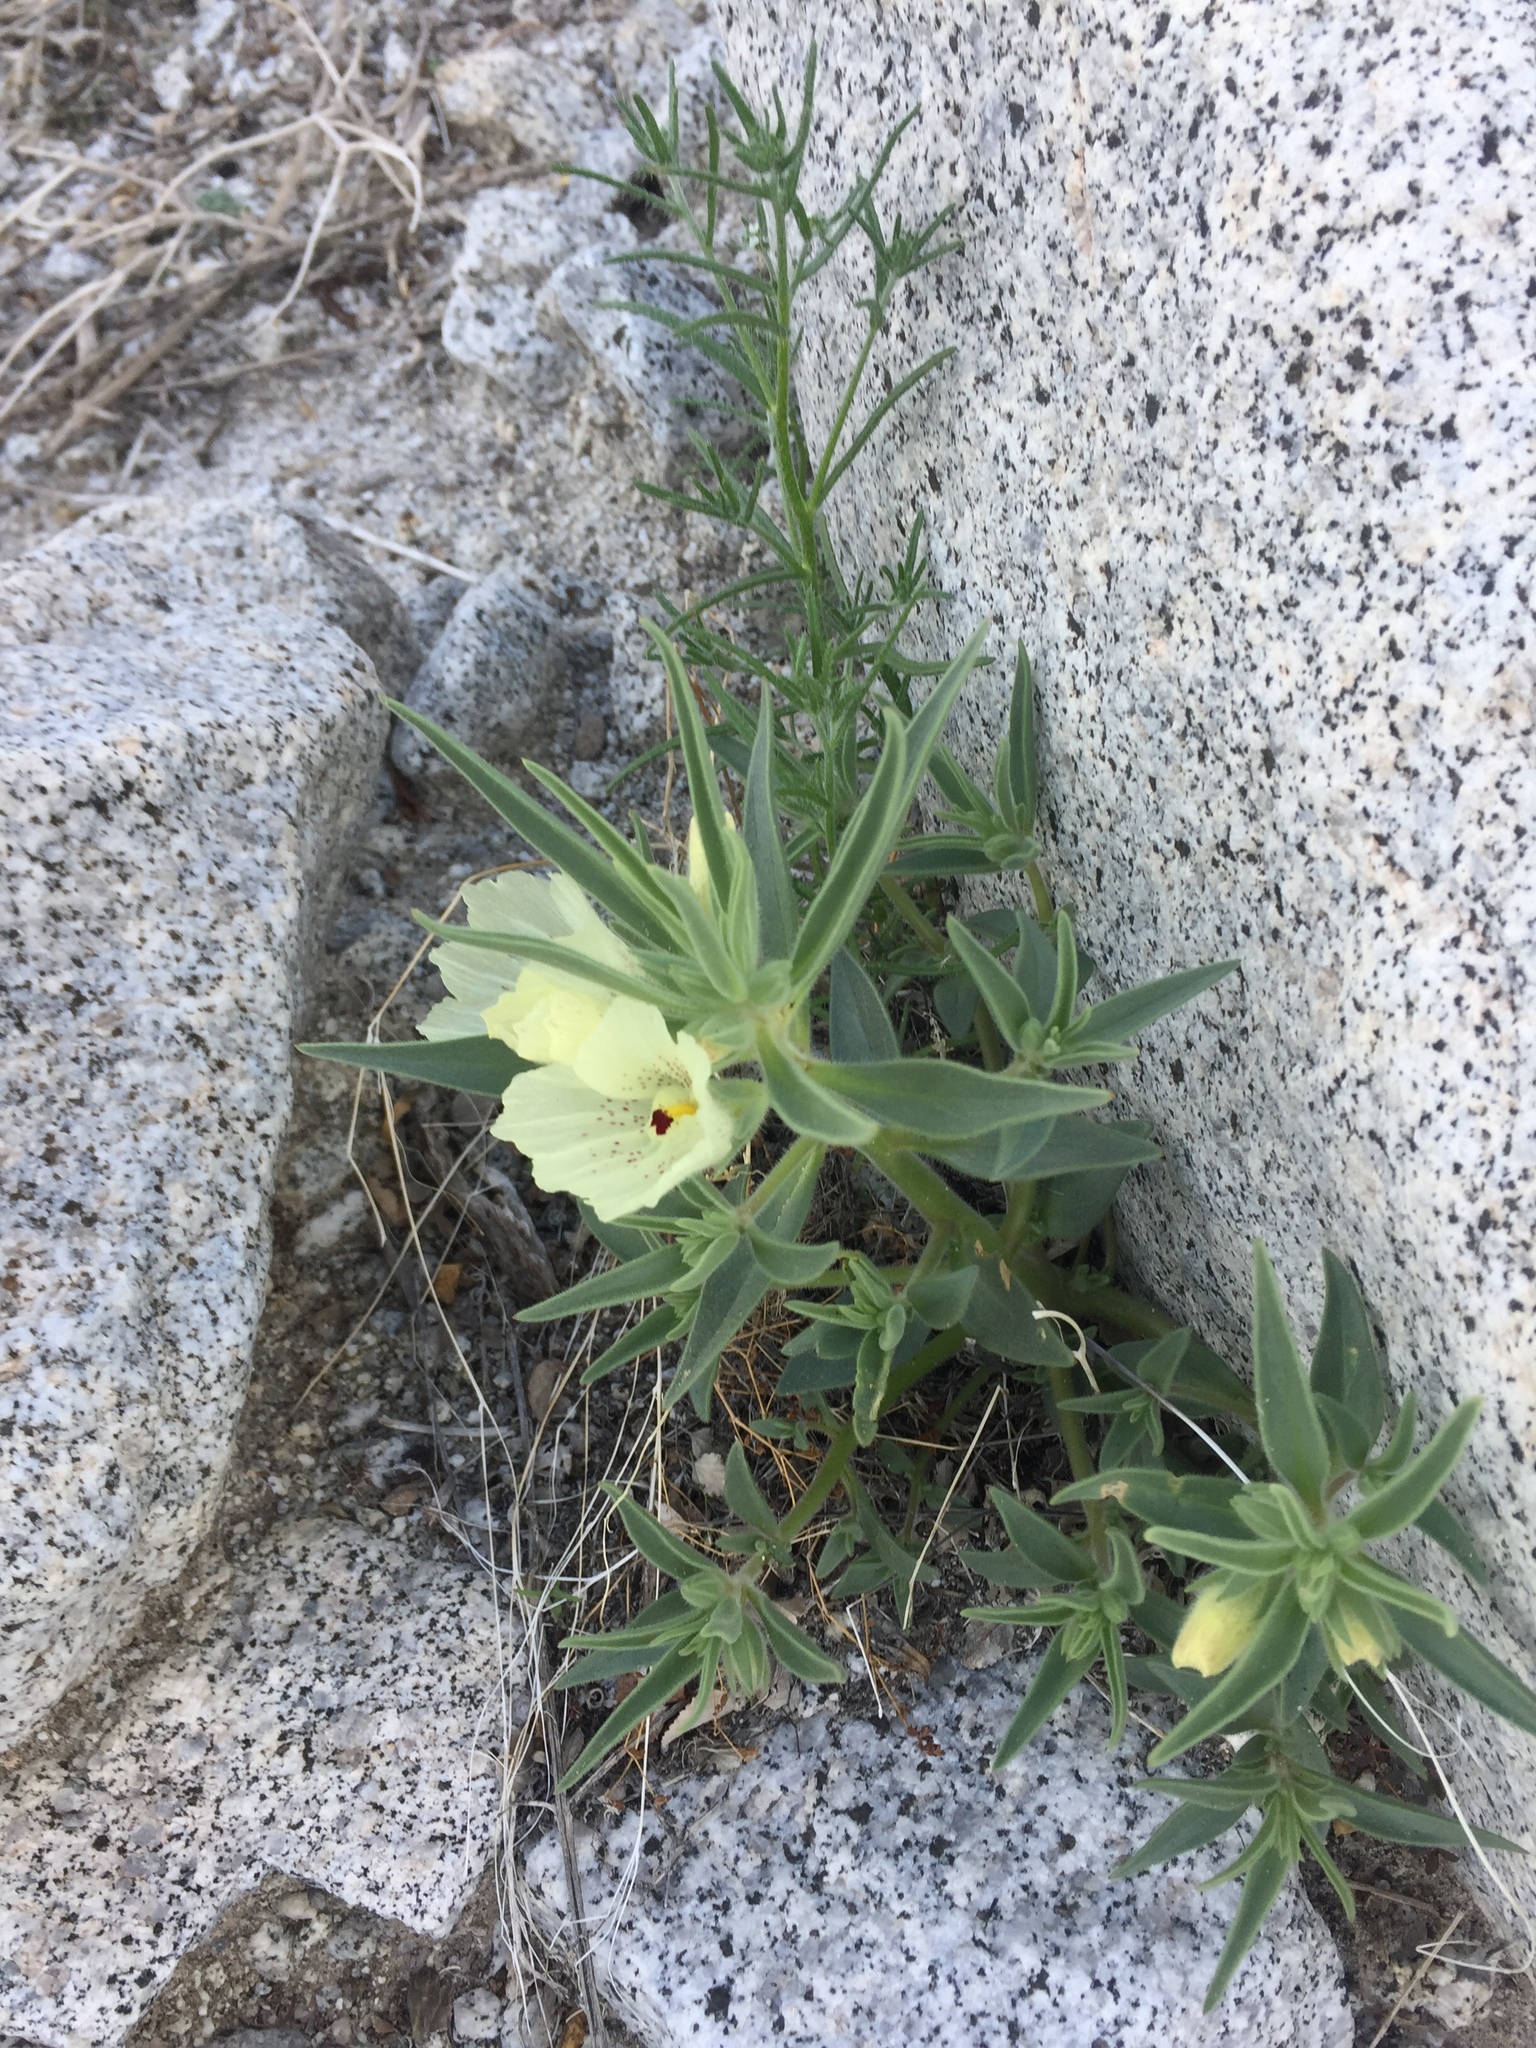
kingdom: Plantae
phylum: Tracheophyta
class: Magnoliopsida
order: Lamiales
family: Plantaginaceae
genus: Mohavea
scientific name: Mohavea confertiflora
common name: Ghost flower
